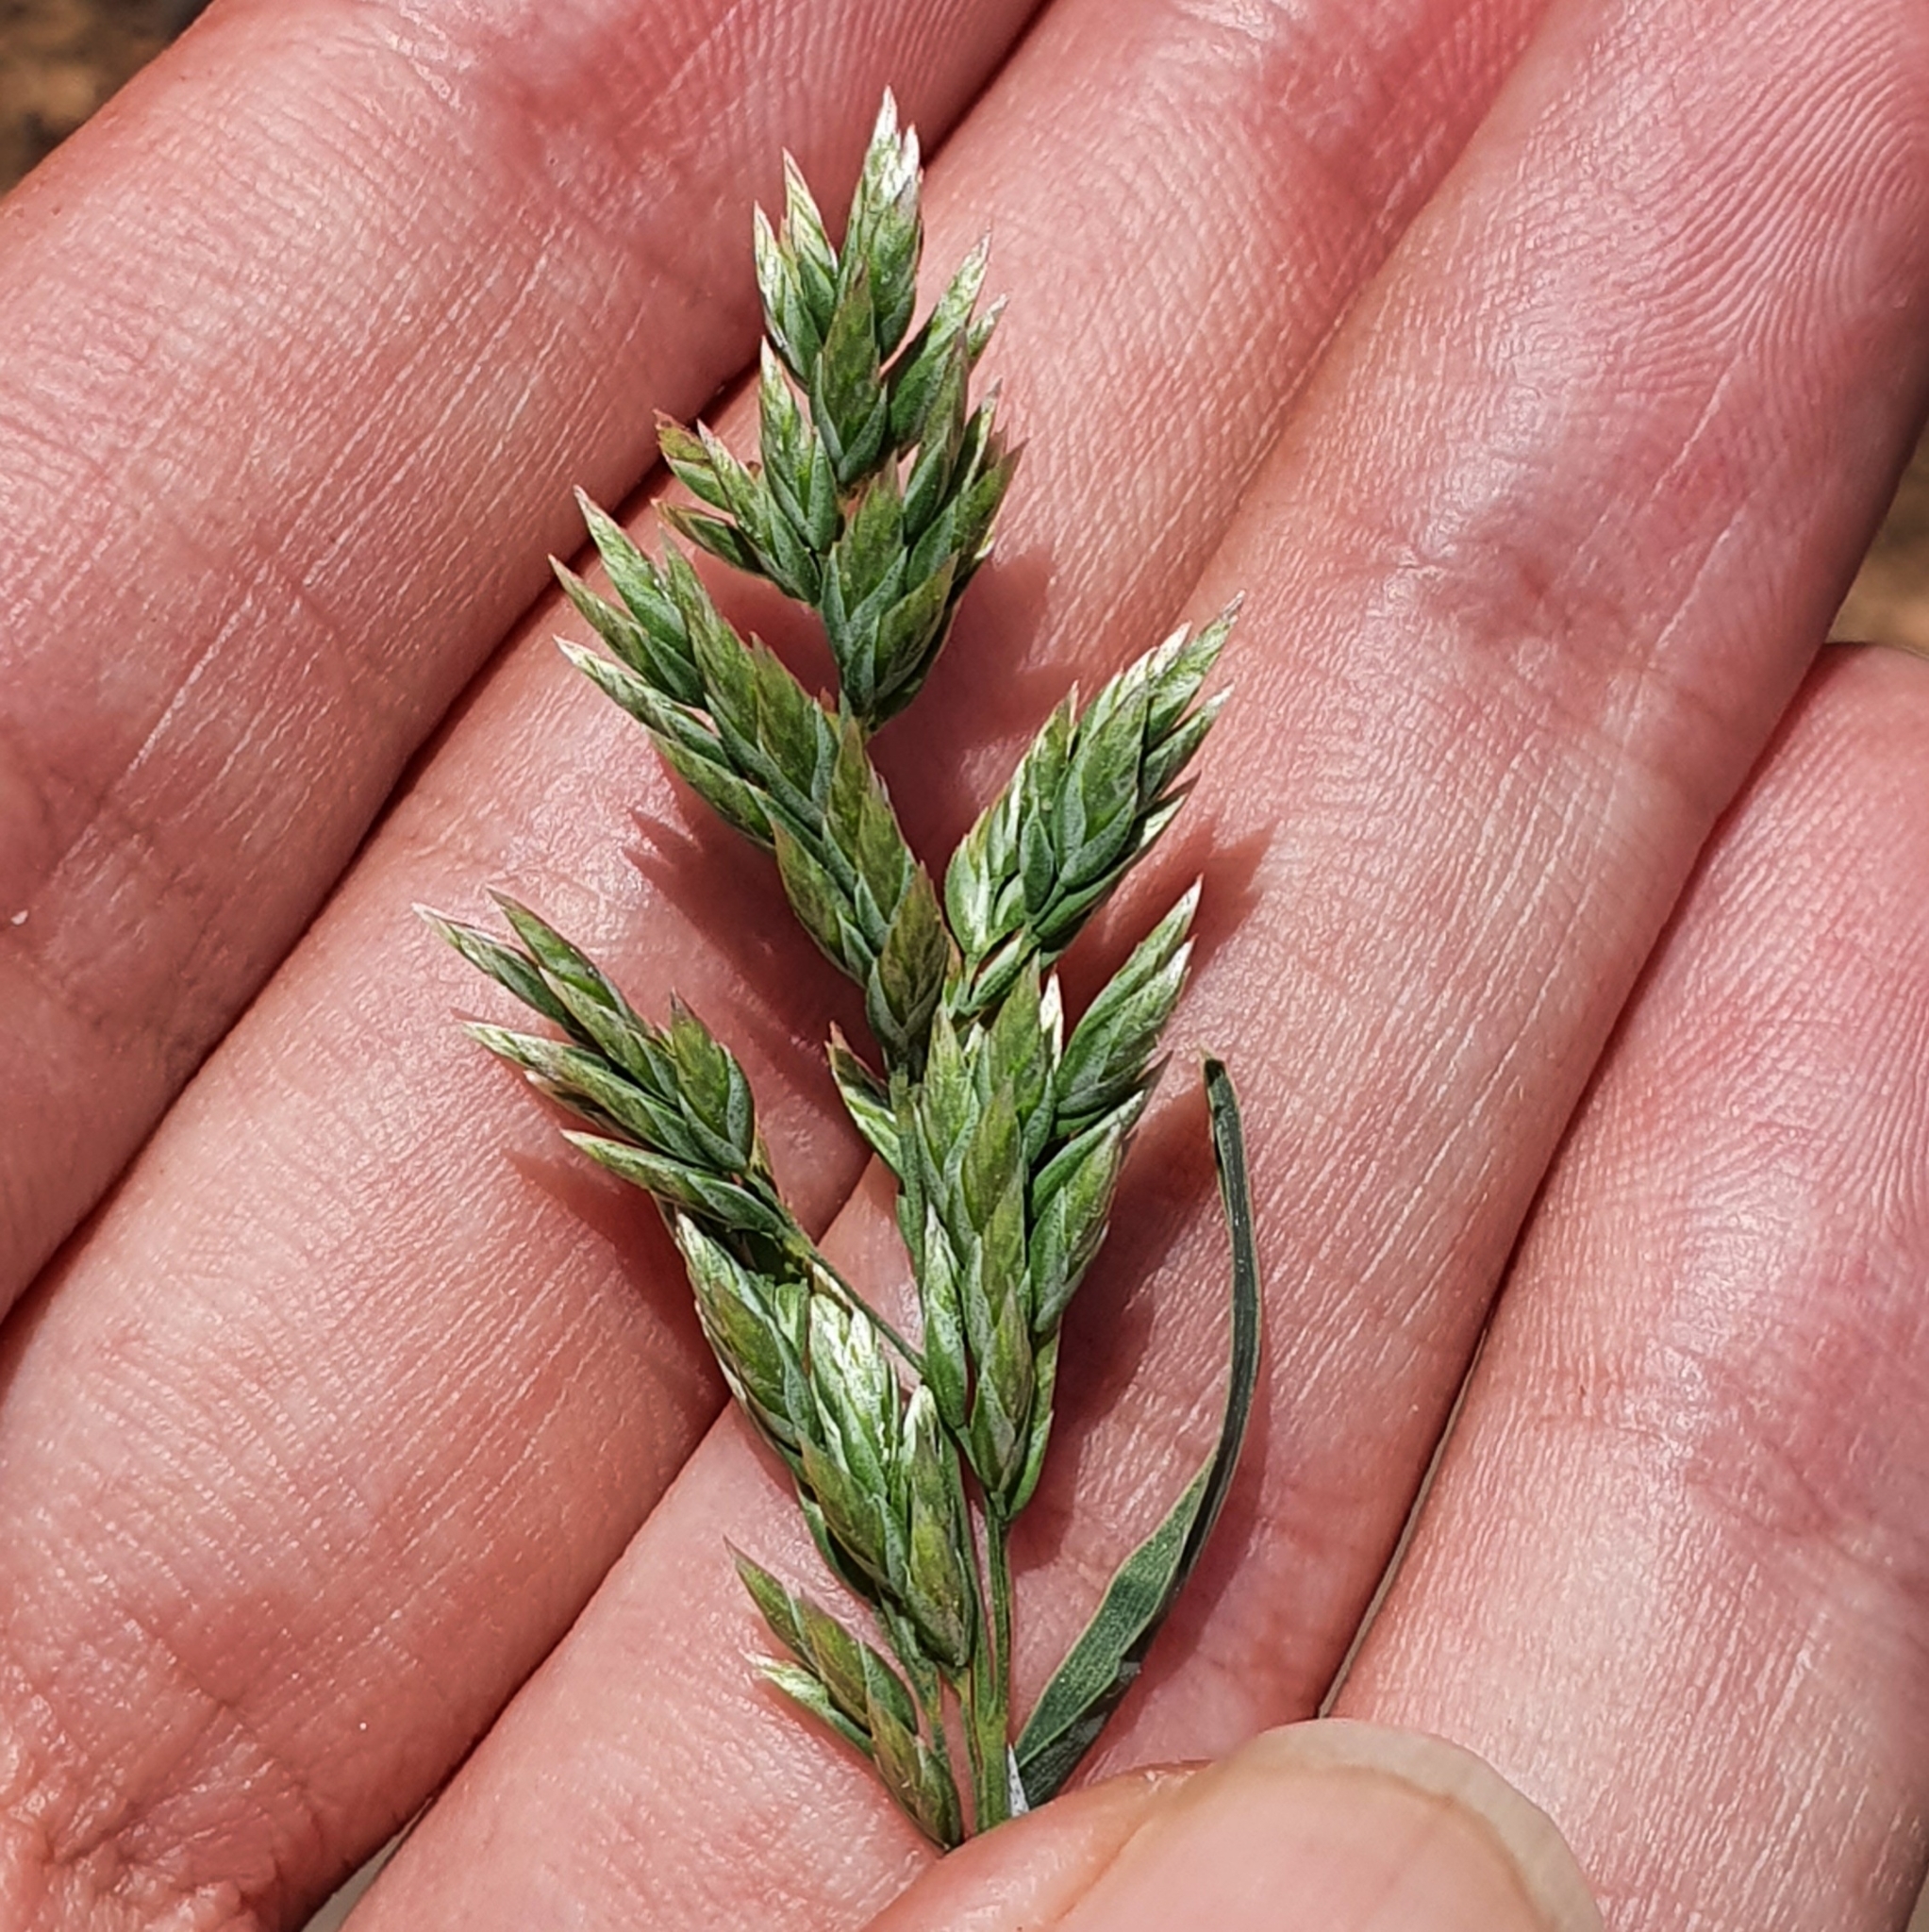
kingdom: Plantae
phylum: Tracheophyta
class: Liliopsida
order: Poales
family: Poaceae
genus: Poa
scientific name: Poa bulbosa
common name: Bulbous bluegrass
